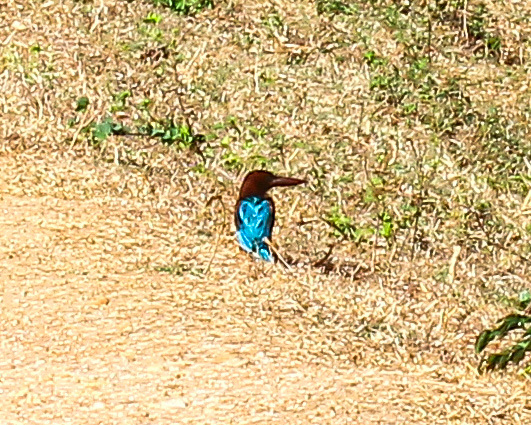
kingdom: Animalia
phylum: Chordata
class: Aves
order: Coraciiformes
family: Alcedinidae
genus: Halcyon
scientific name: Halcyon smyrnensis
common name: White-throated kingfisher
